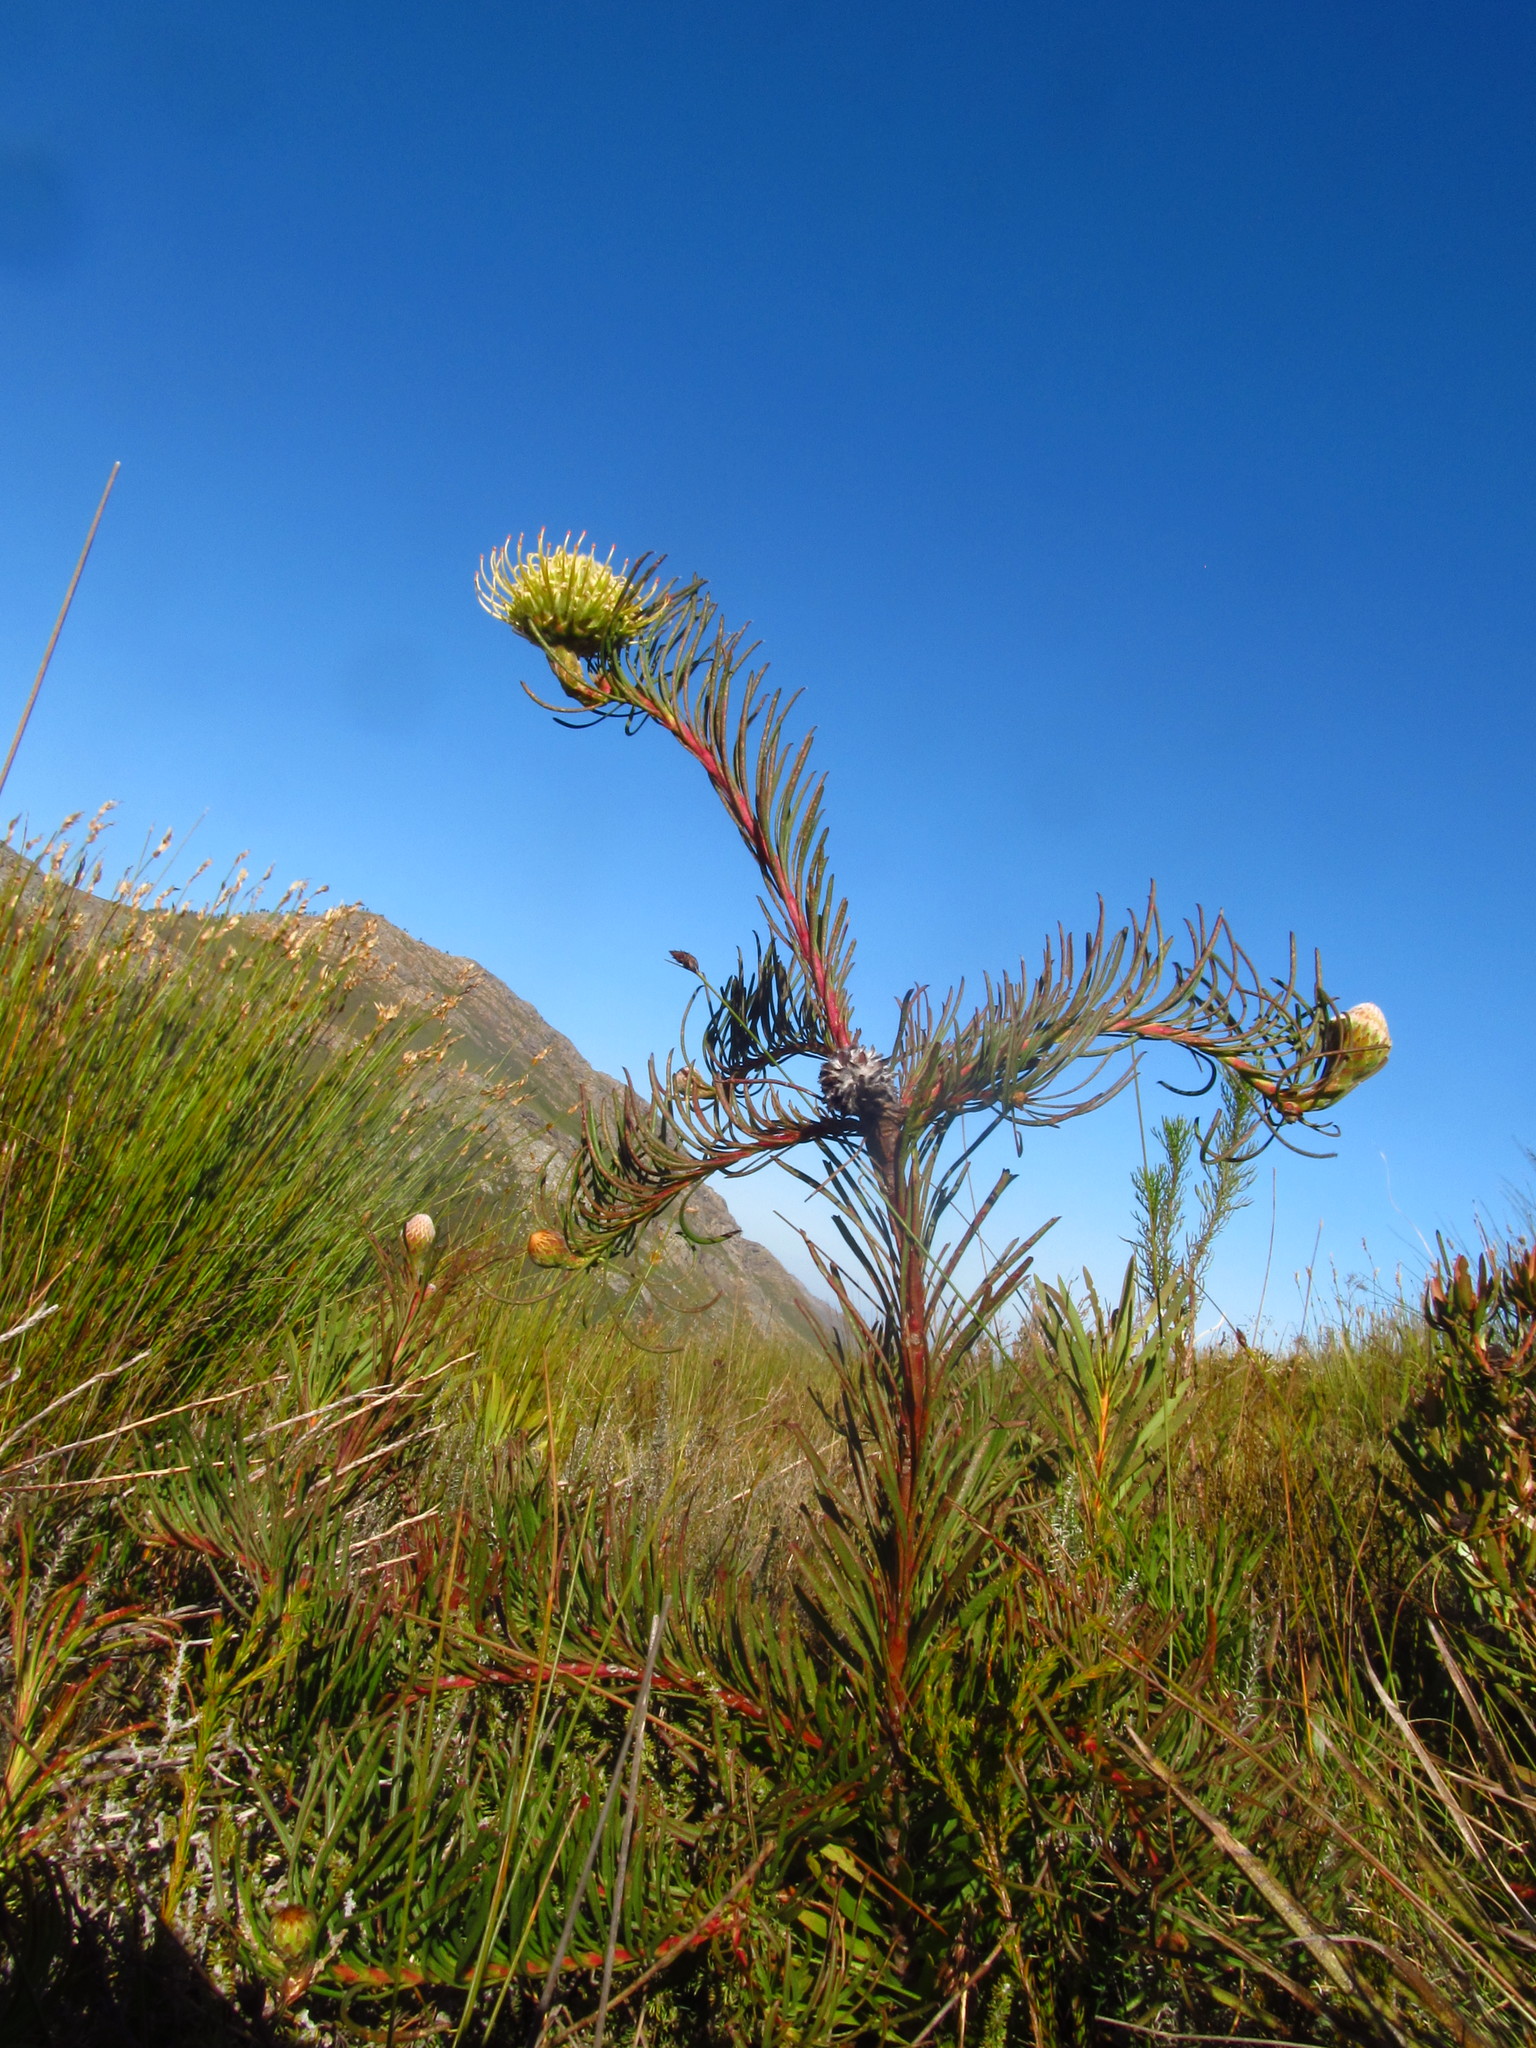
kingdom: Plantae
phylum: Tracheophyta
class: Magnoliopsida
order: Proteales
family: Proteaceae
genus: Leucospermum
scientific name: Leucospermum lineare
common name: Needle-leaf pincushion
